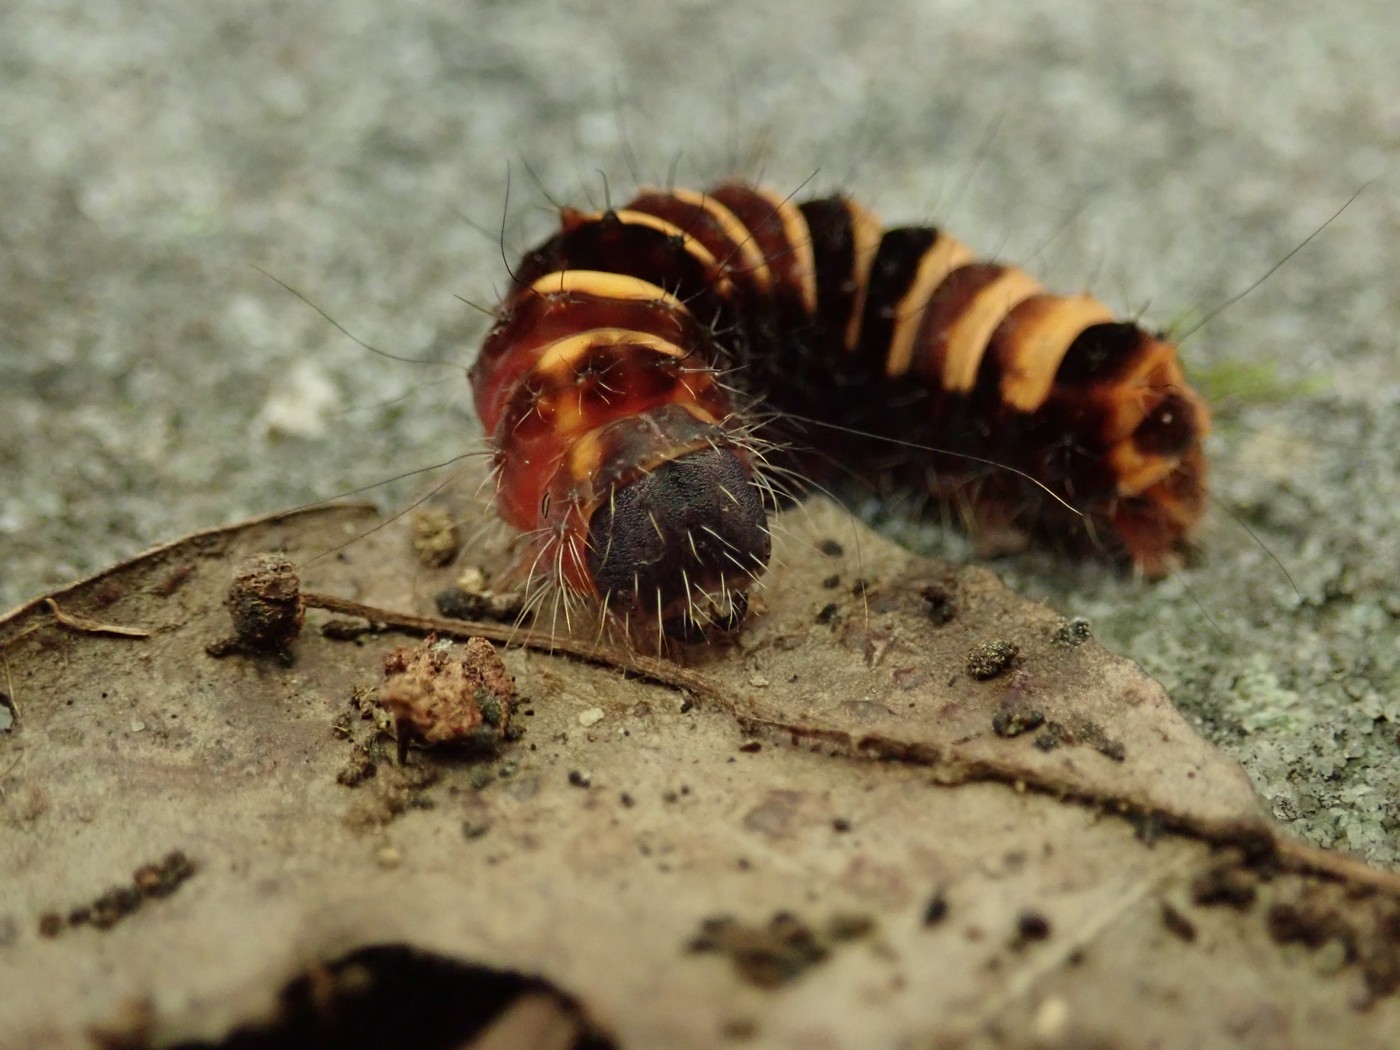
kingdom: Animalia
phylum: Arthropoda
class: Insecta
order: Lepidoptera
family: Noctuidae
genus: Acronicta
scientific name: Acronicta hamamelis
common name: Witch hazel dagger
